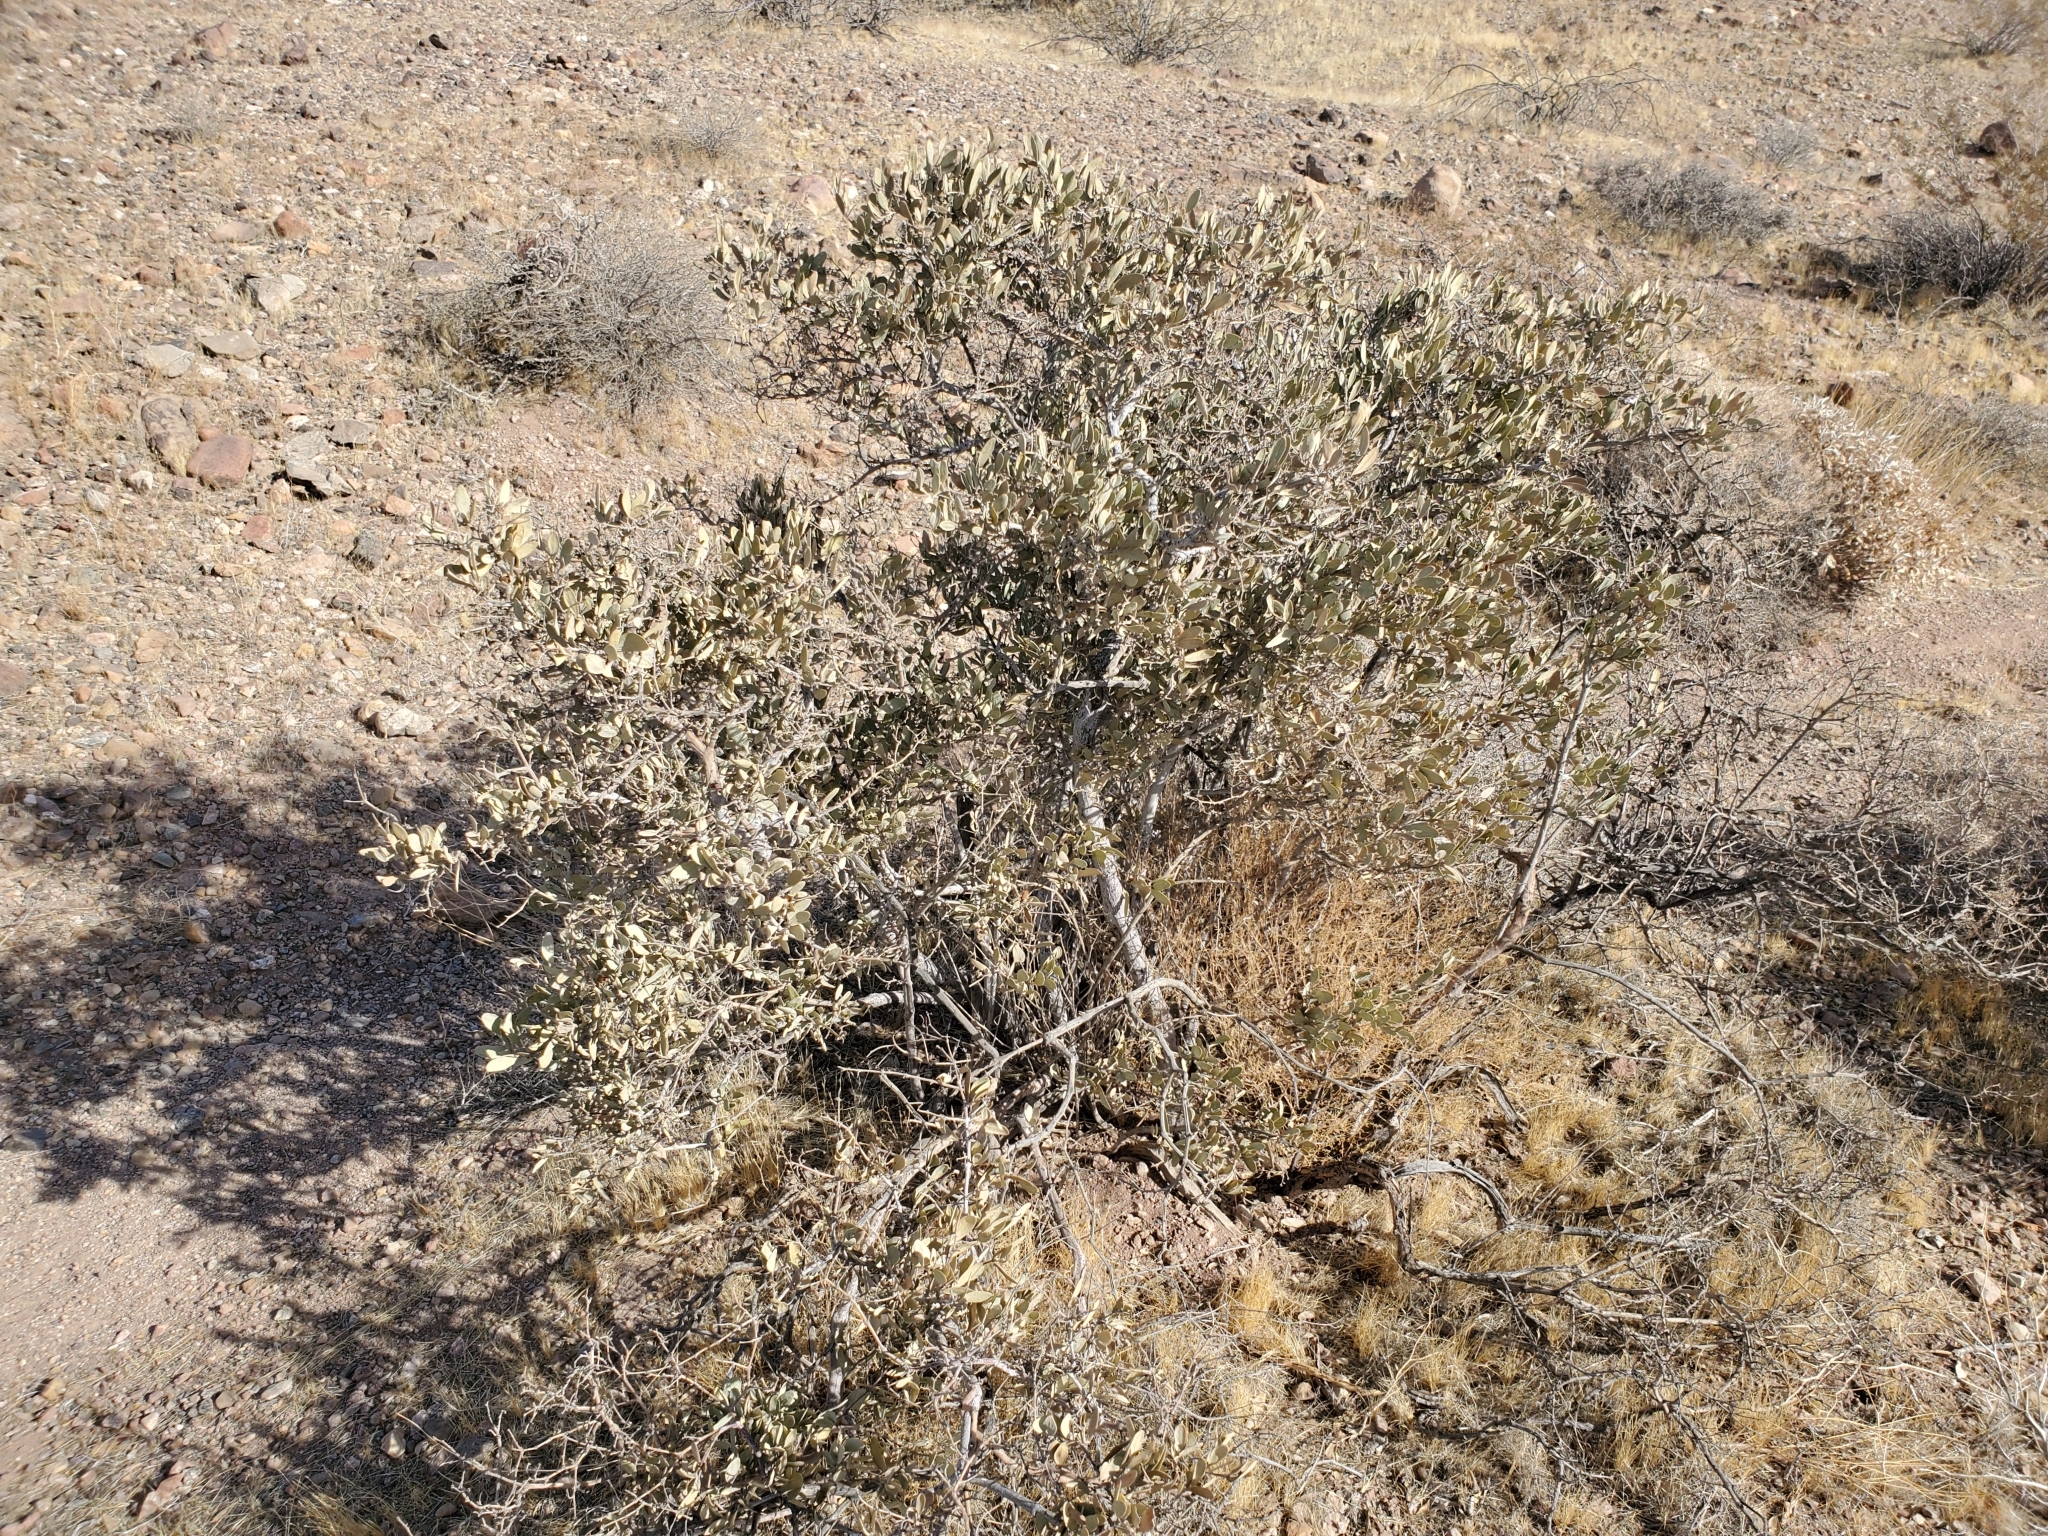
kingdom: Plantae
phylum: Tracheophyta
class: Magnoliopsida
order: Caryophyllales
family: Simmondsiaceae
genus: Simmondsia
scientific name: Simmondsia chinensis
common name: Jojoba
